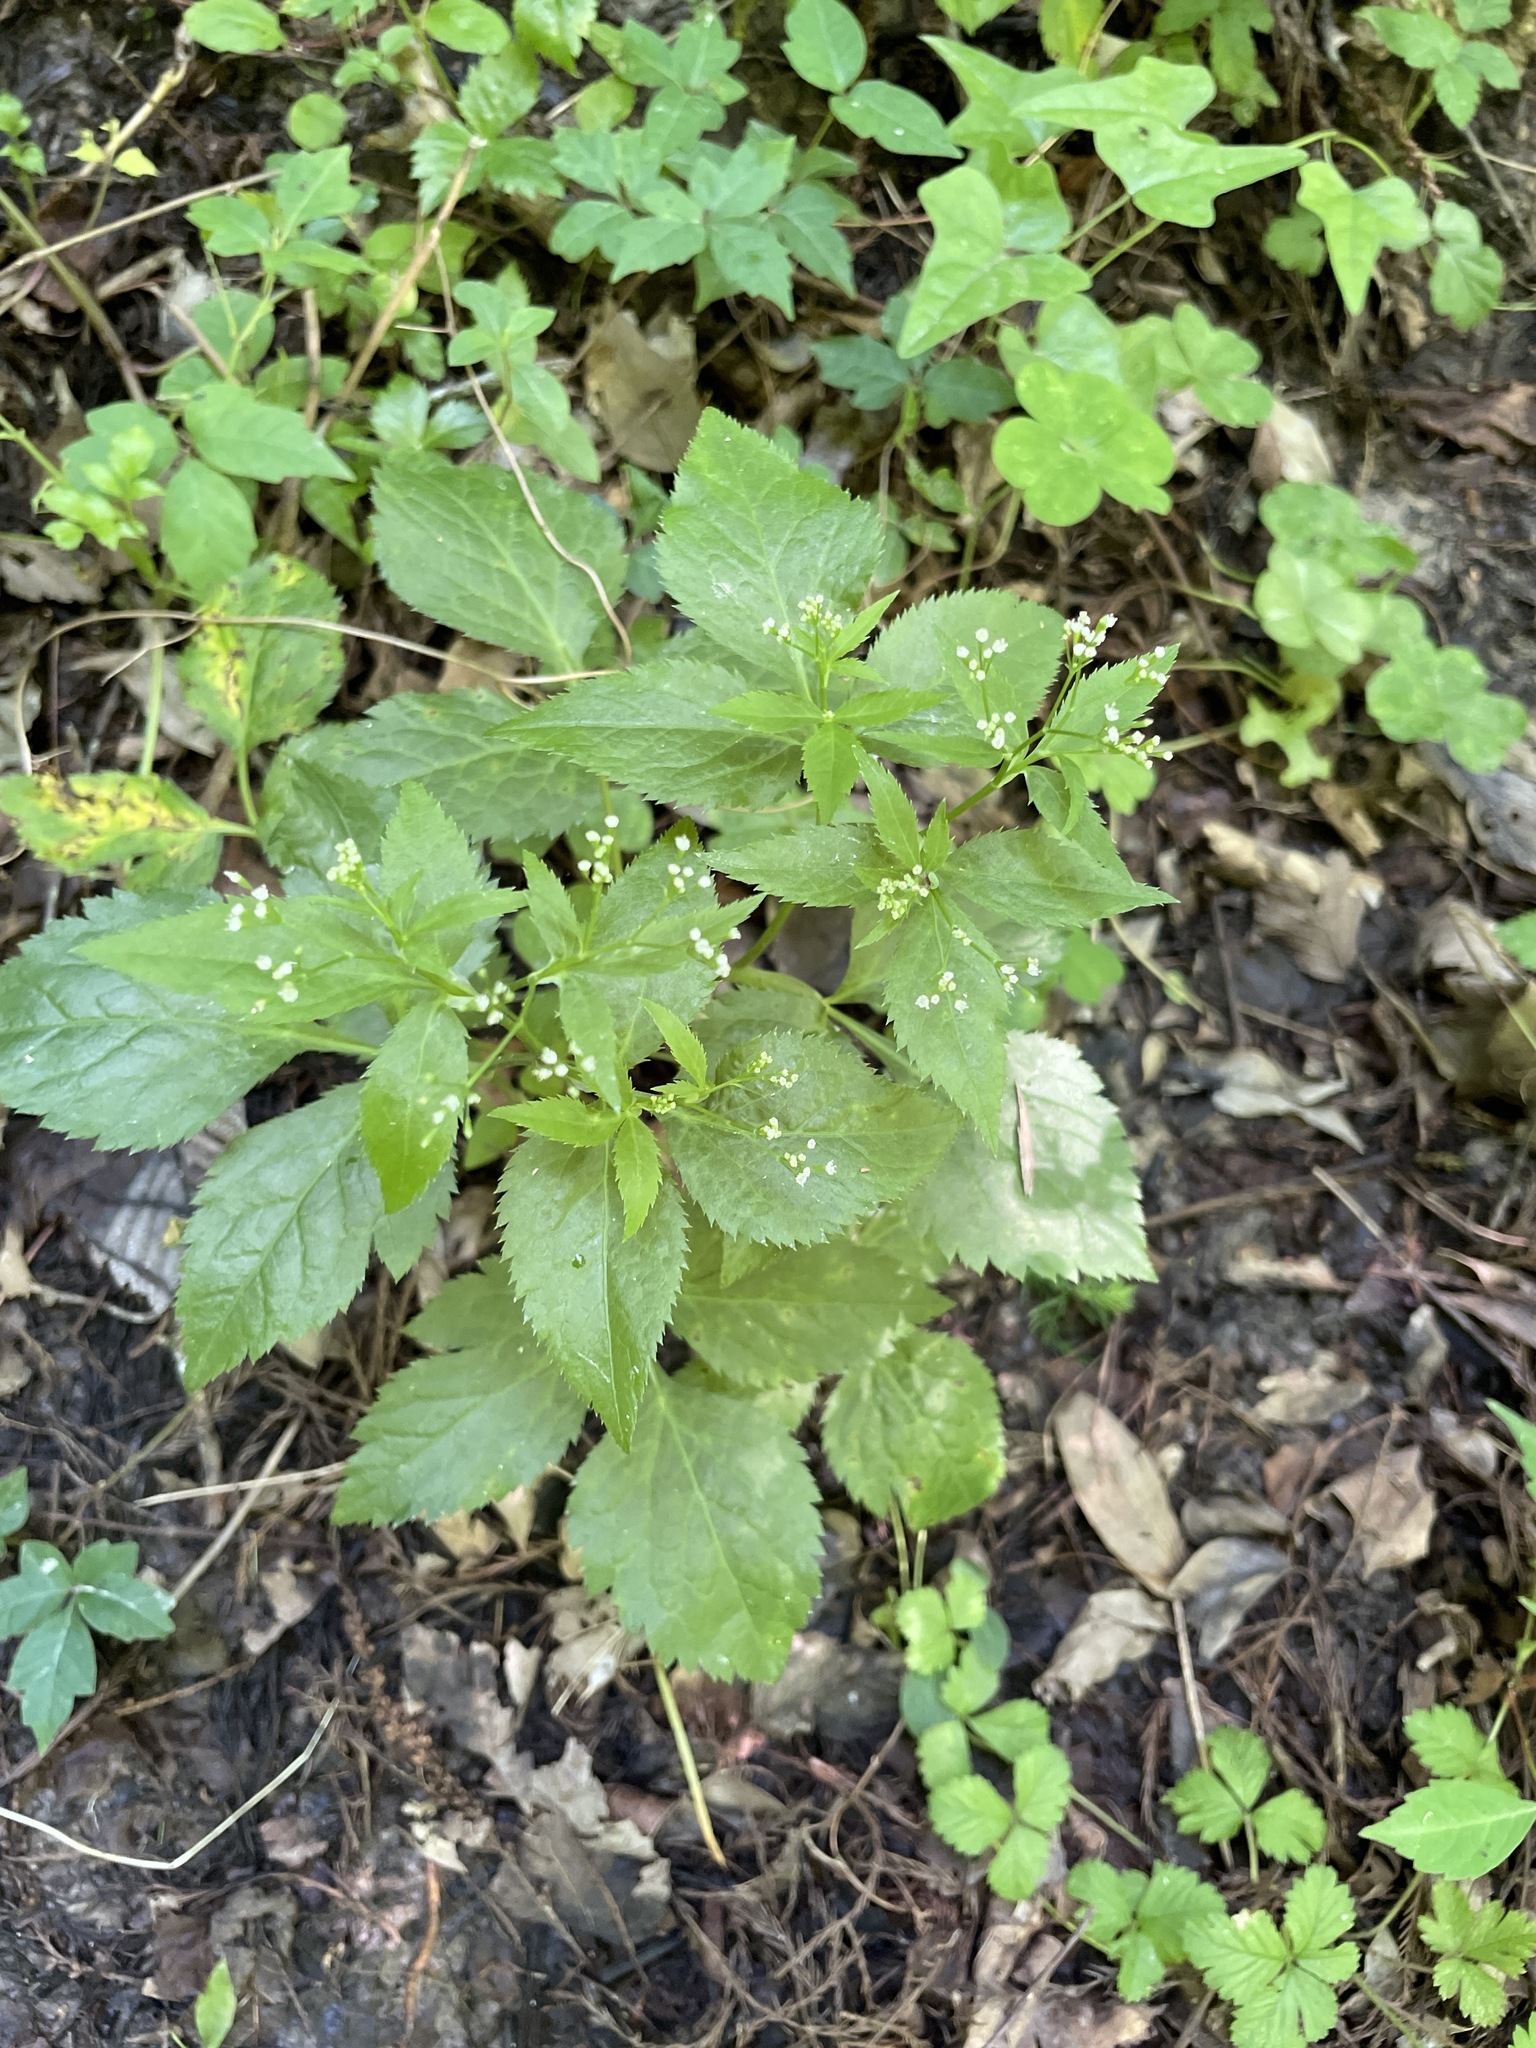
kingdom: Plantae
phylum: Tracheophyta
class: Magnoliopsida
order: Apiales
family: Apiaceae
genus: Cryptotaenia
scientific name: Cryptotaenia canadensis
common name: Honewort
